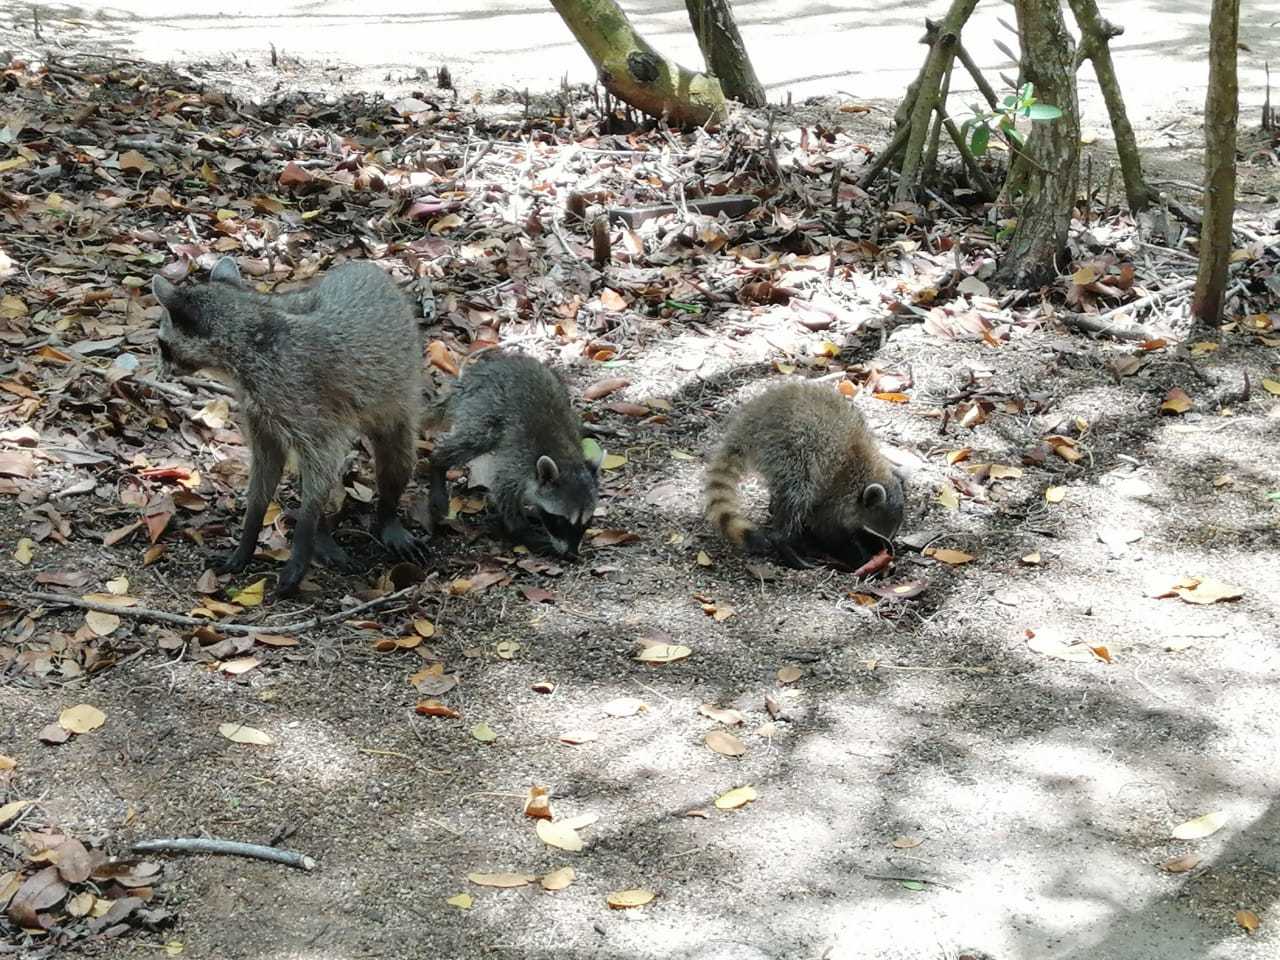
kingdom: Animalia
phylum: Chordata
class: Mammalia
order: Carnivora
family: Procyonidae
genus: Procyon
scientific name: Procyon lotor
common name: Raccoon
